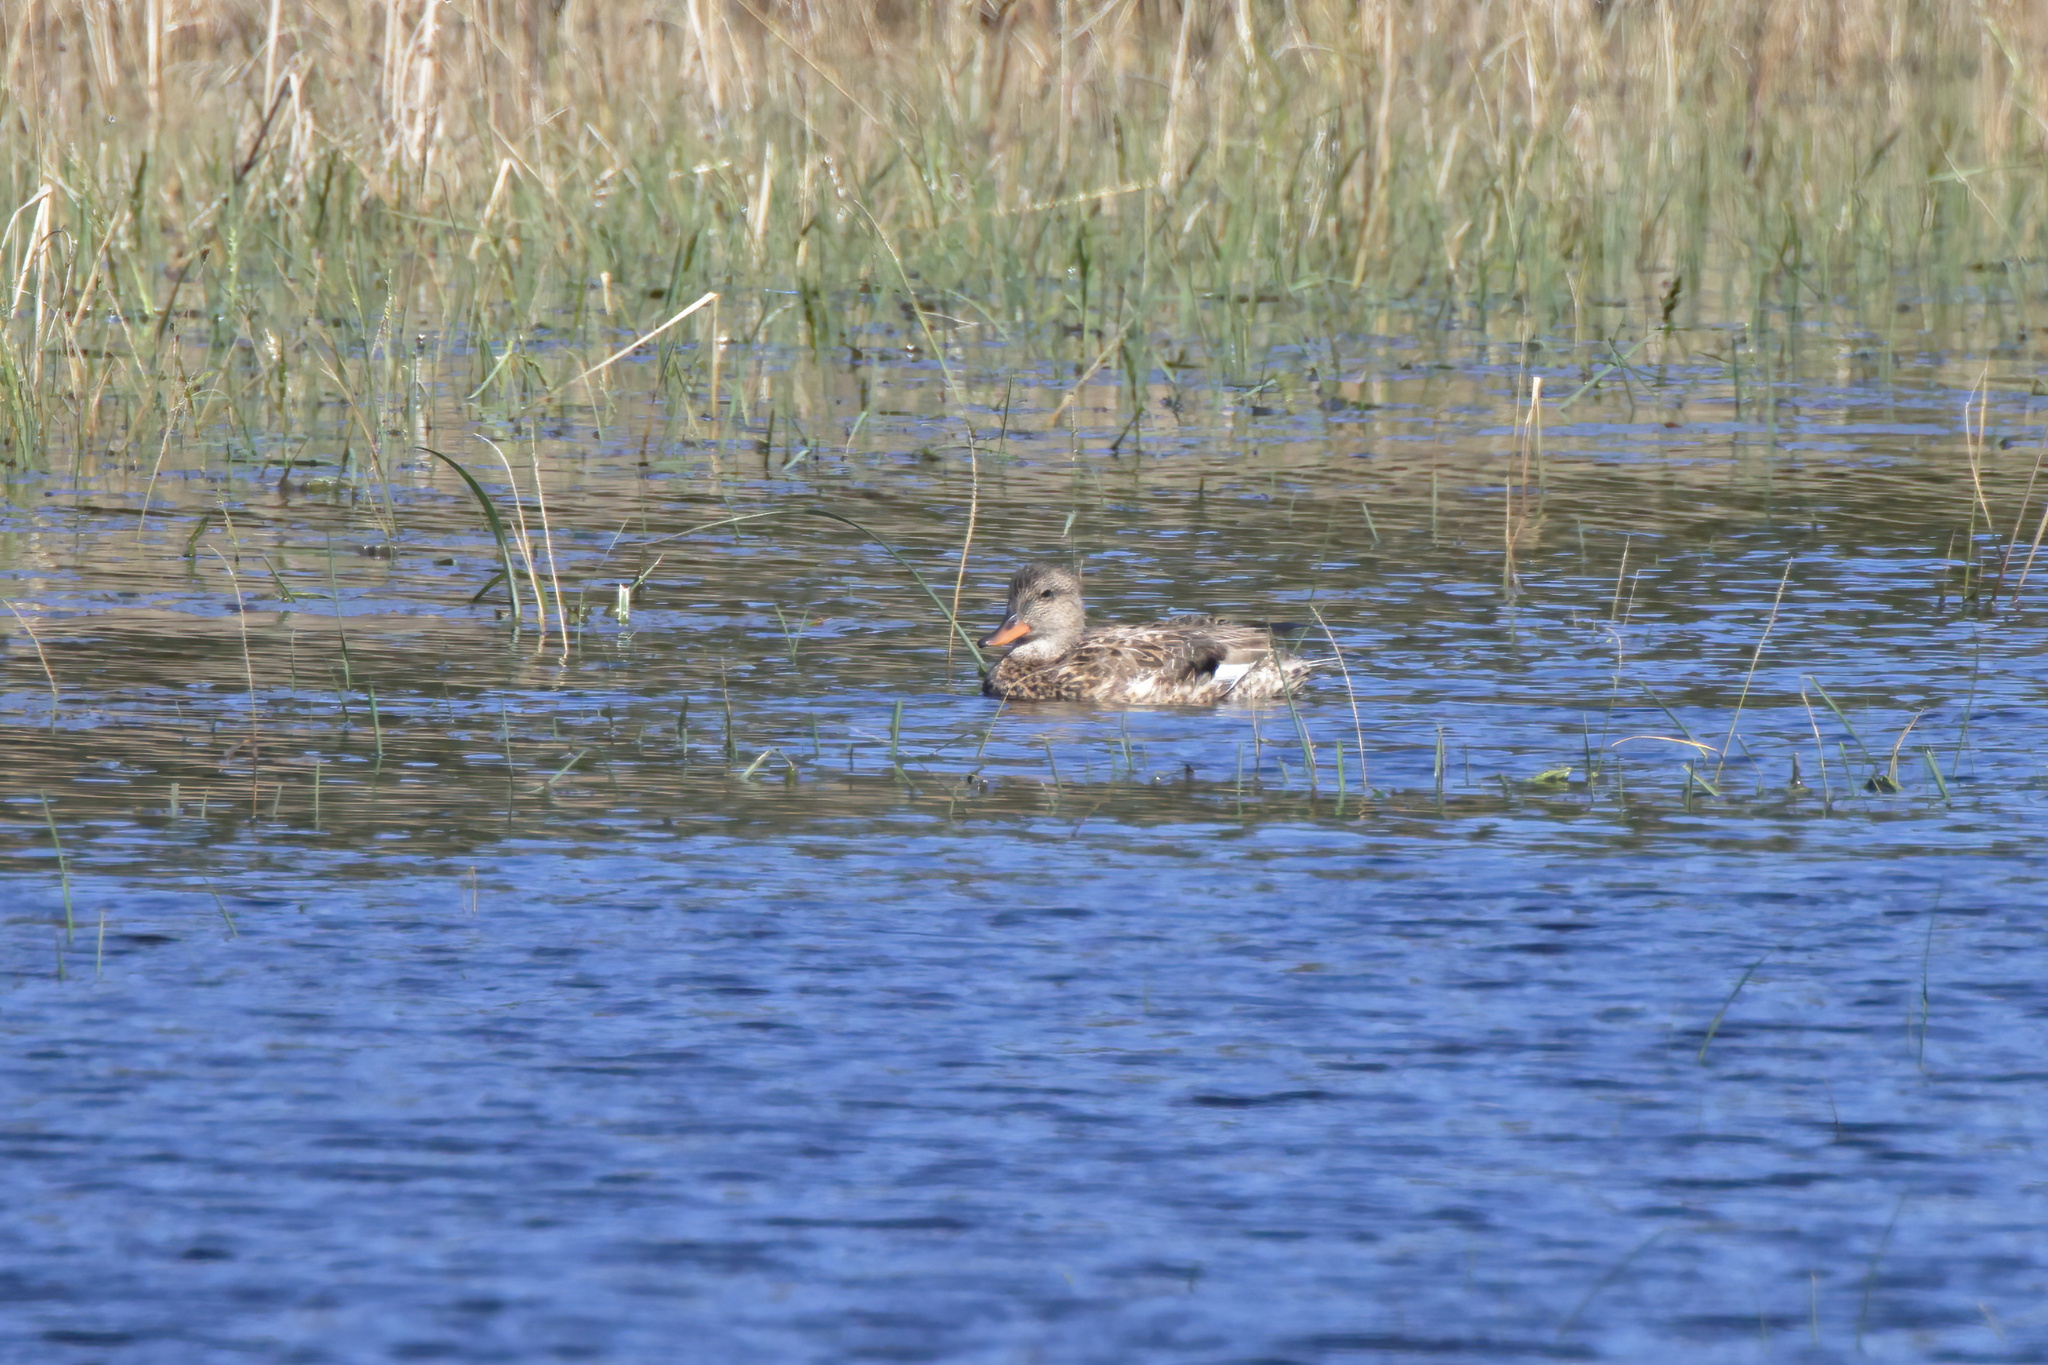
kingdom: Animalia
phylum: Chordata
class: Aves
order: Anseriformes
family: Anatidae
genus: Mareca
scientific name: Mareca strepera
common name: Gadwall
